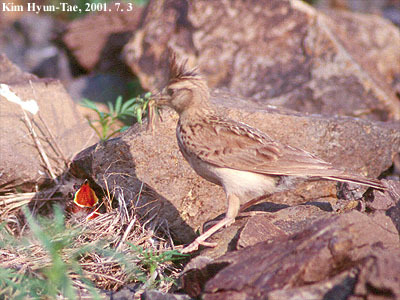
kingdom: Animalia
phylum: Chordata
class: Aves
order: Passeriformes
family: Alaudidae
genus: Galerida
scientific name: Galerida cristata
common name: Crested lark
